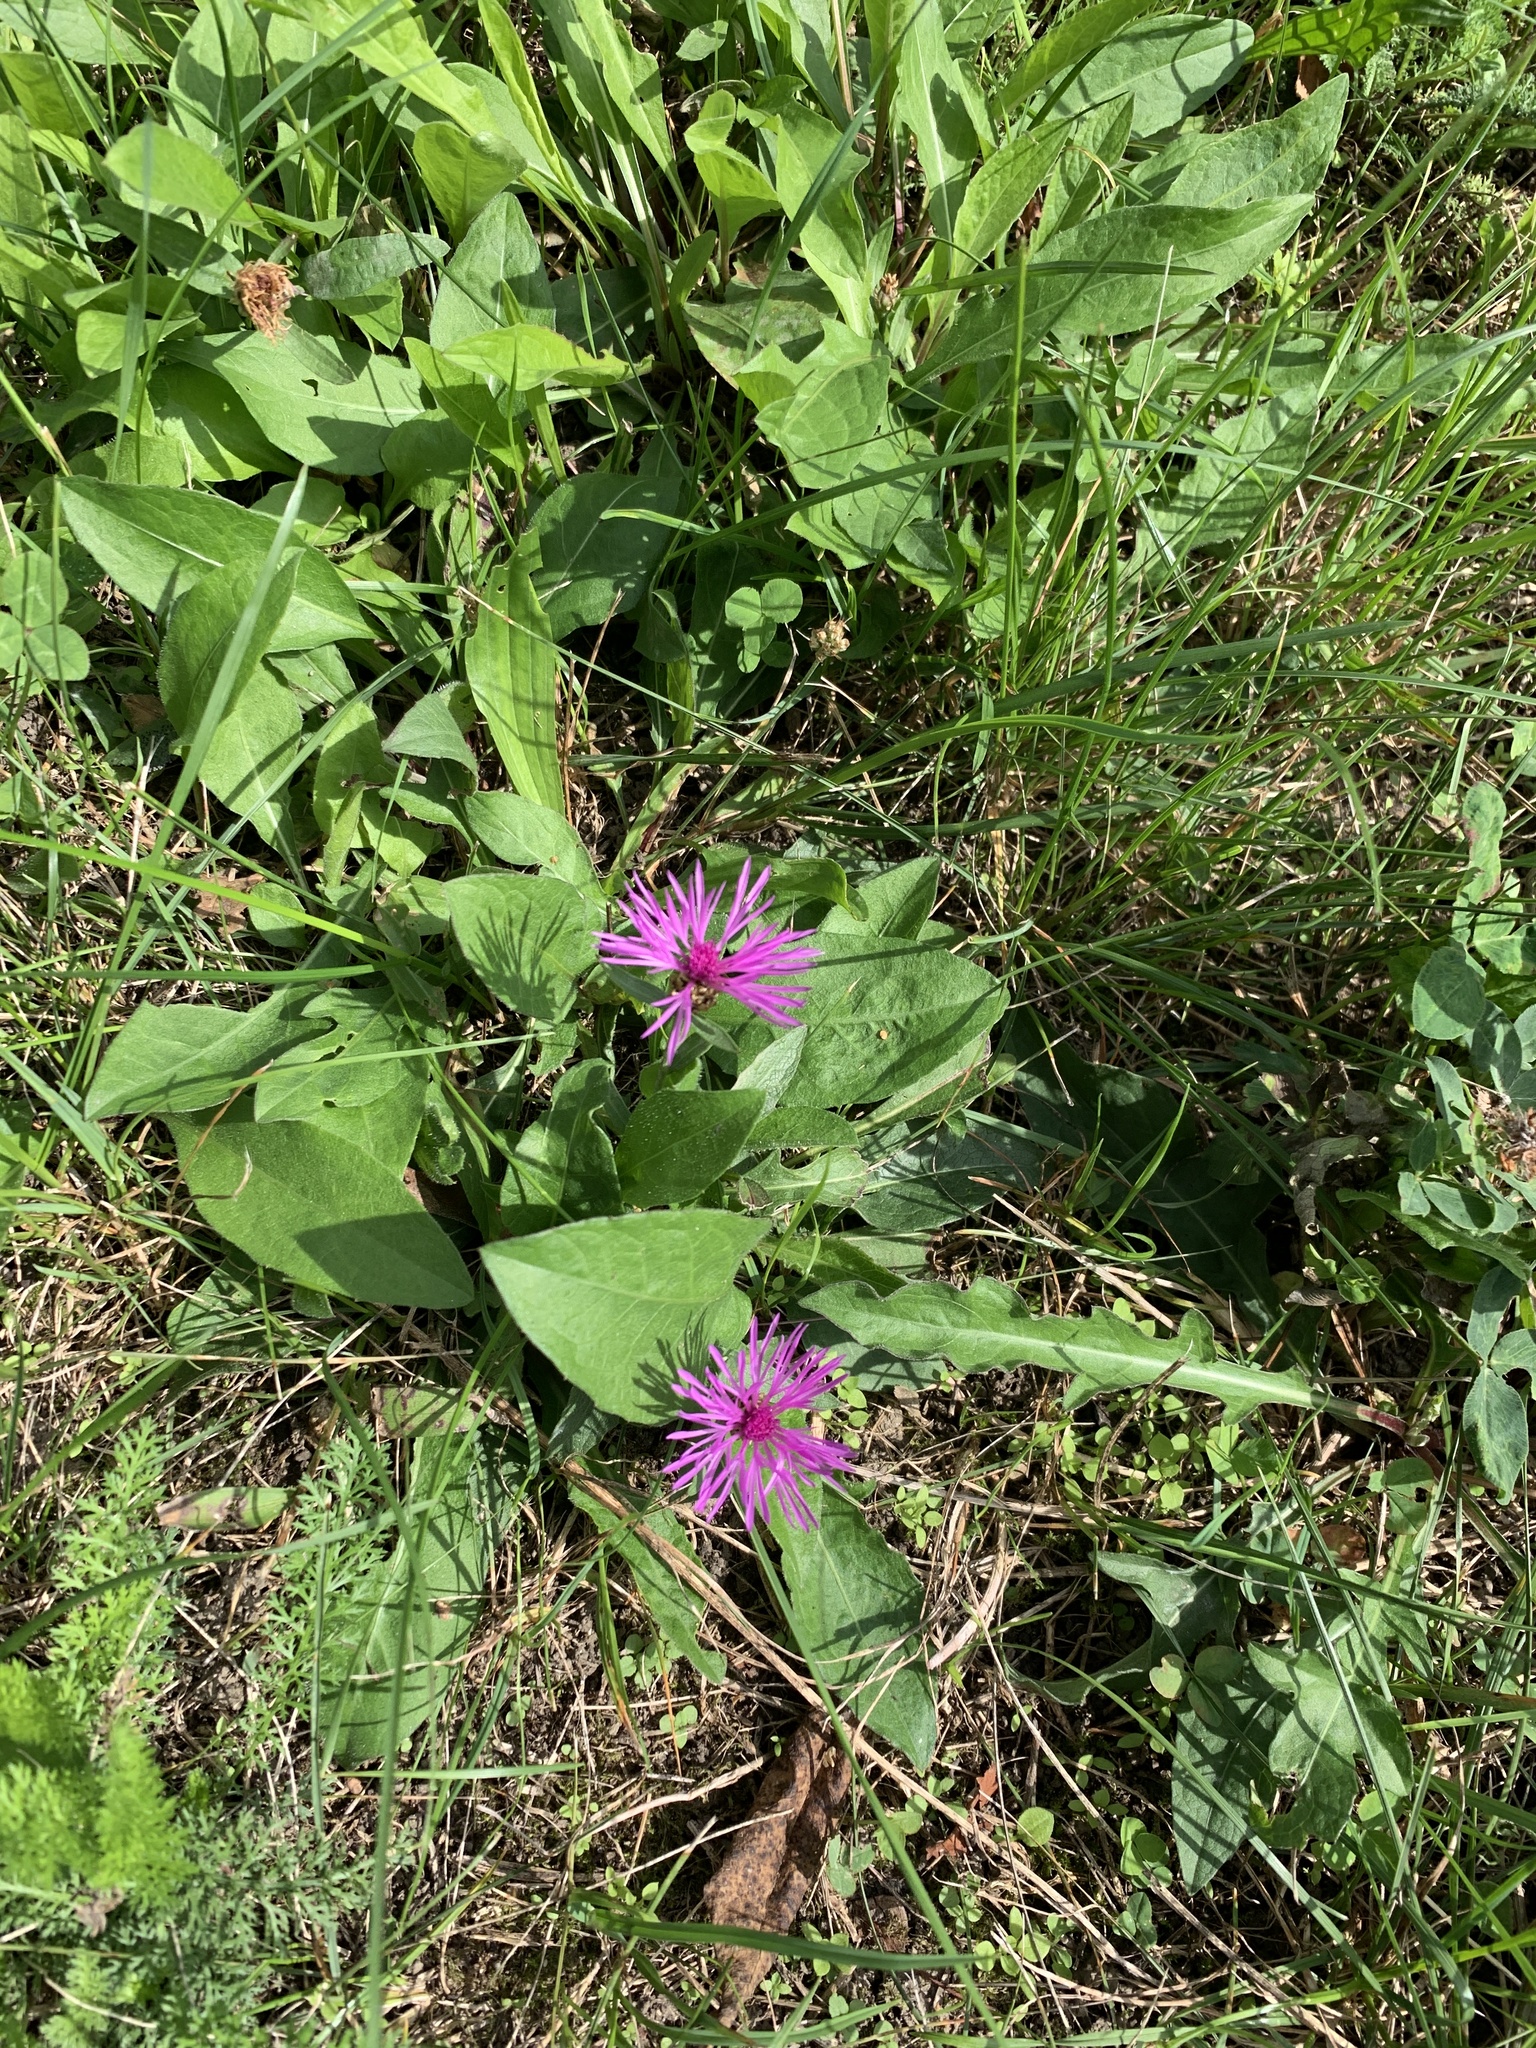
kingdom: Plantae
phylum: Tracheophyta
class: Magnoliopsida
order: Asterales
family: Asteraceae
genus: Centaurea
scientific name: Centaurea jacea
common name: Brown knapweed
